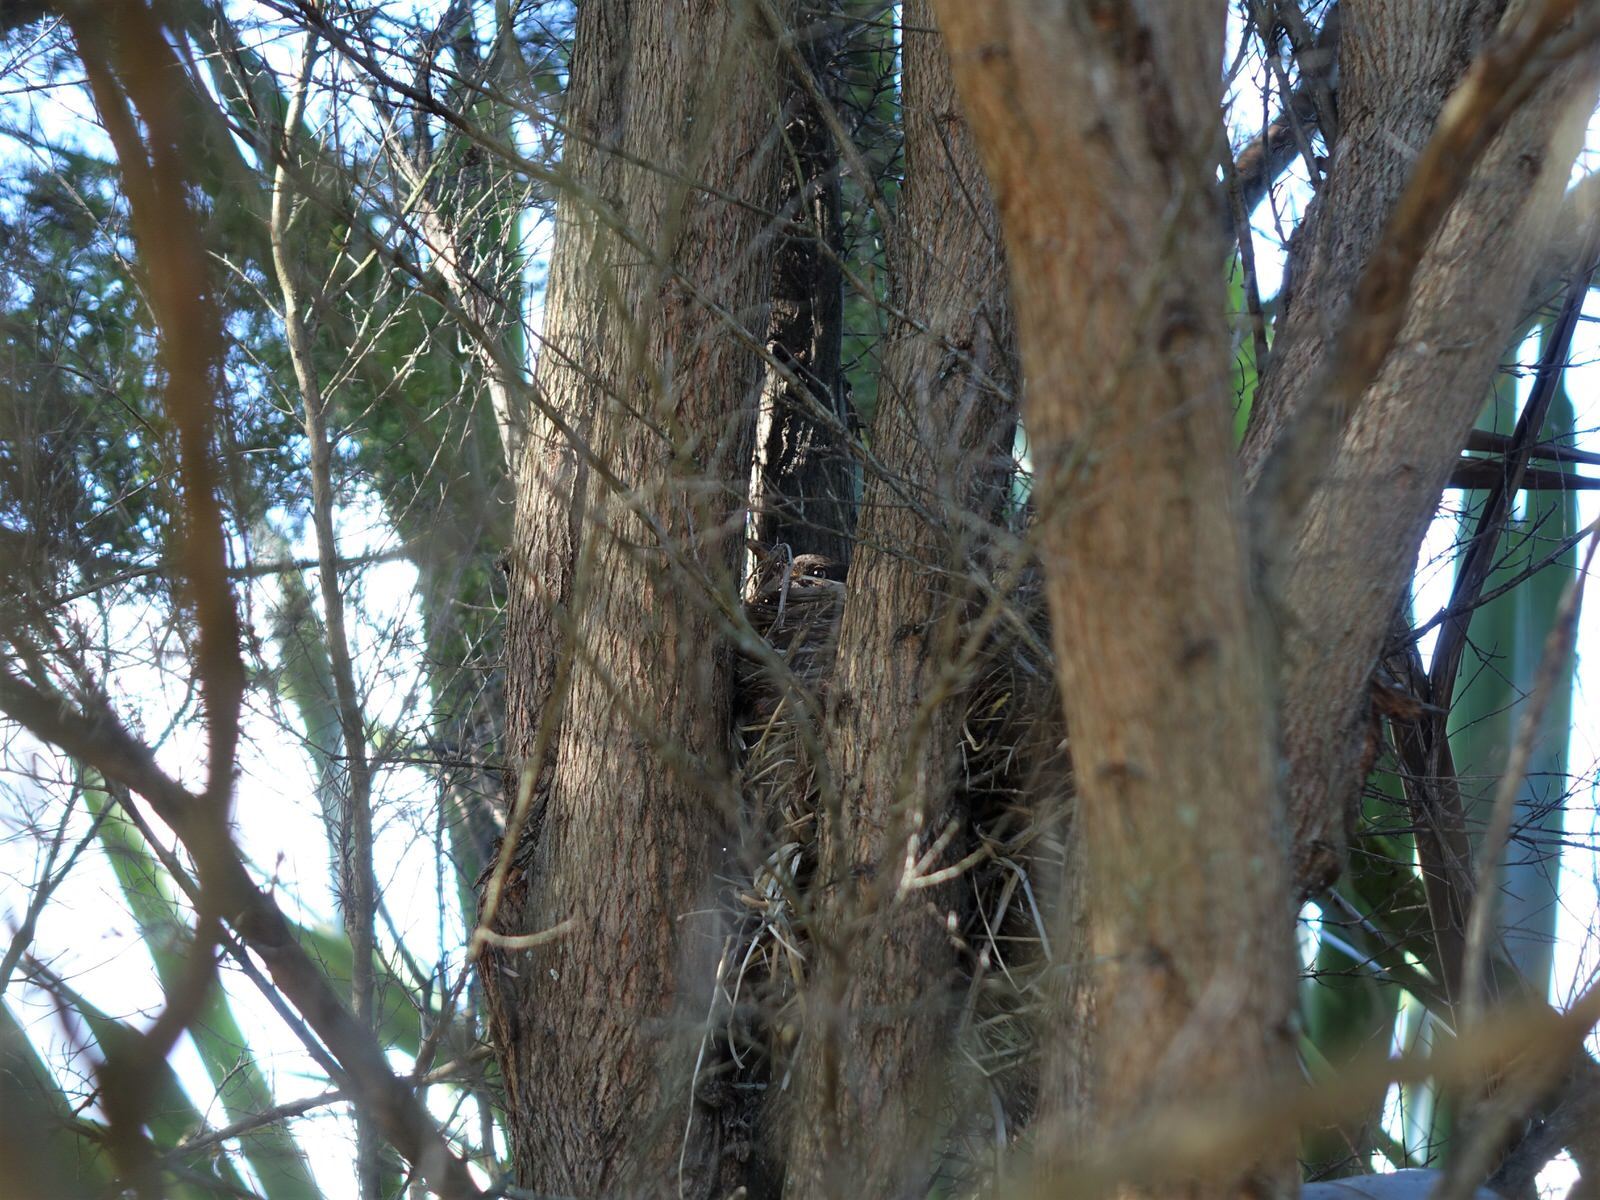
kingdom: Animalia
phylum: Chordata
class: Aves
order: Passeriformes
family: Turdidae
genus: Turdus
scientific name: Turdus merula
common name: Common blackbird
